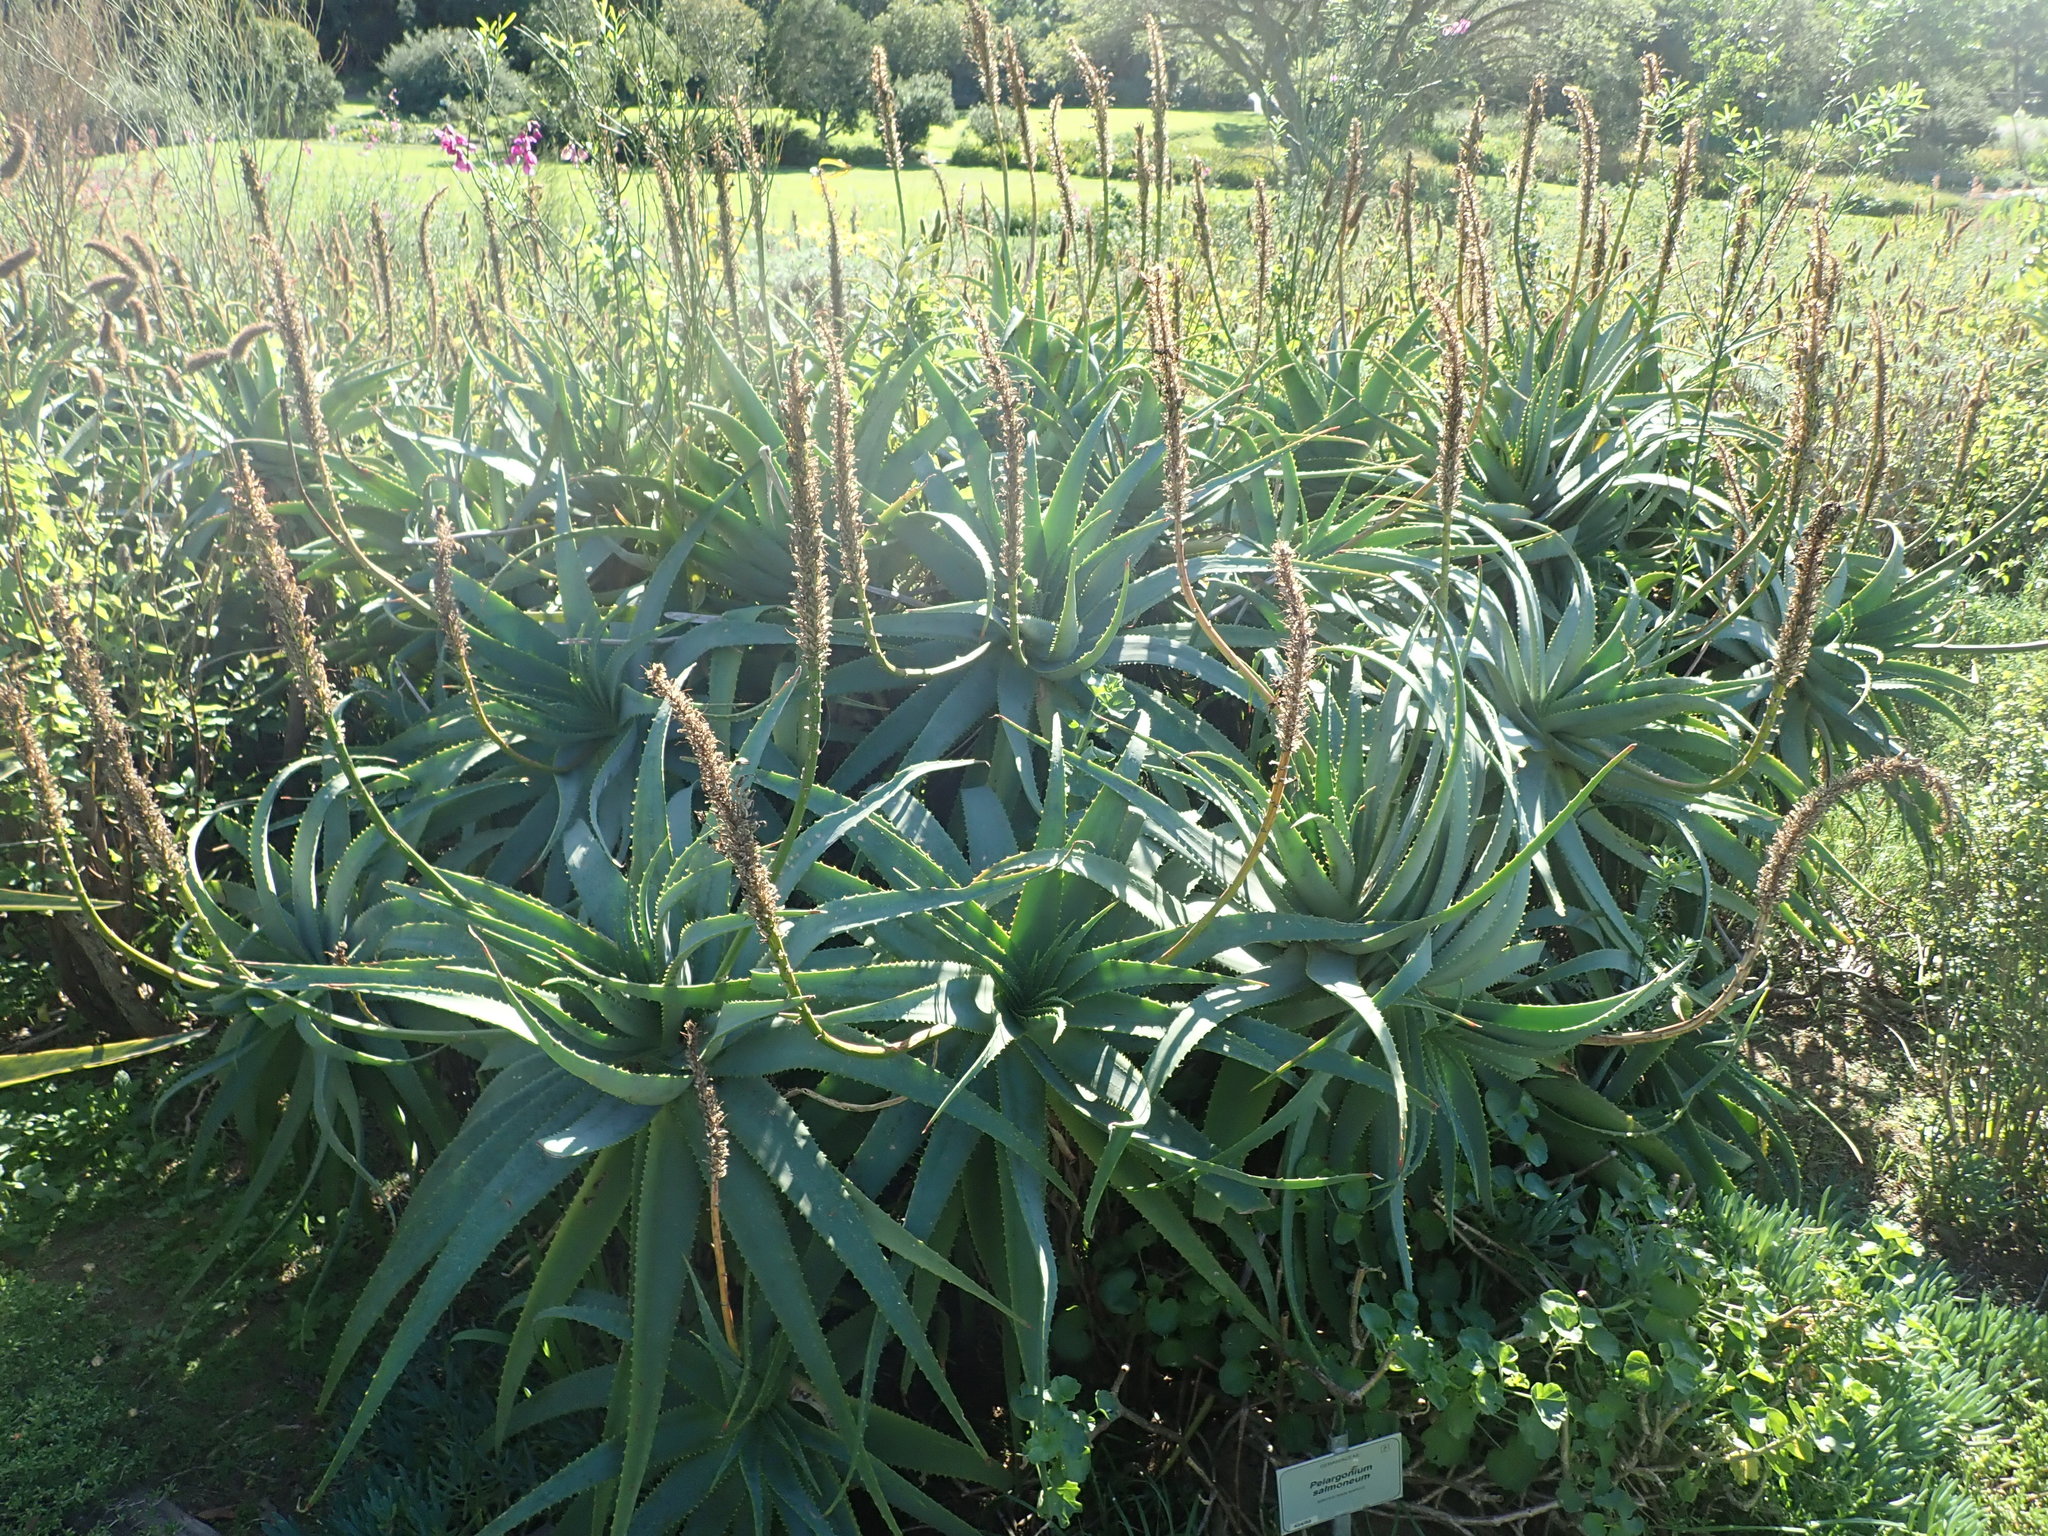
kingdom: Plantae
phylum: Tracheophyta
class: Liliopsida
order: Asparagales
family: Asphodelaceae
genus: Aloe
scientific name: Aloe arborescens
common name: Candelabra aloe
